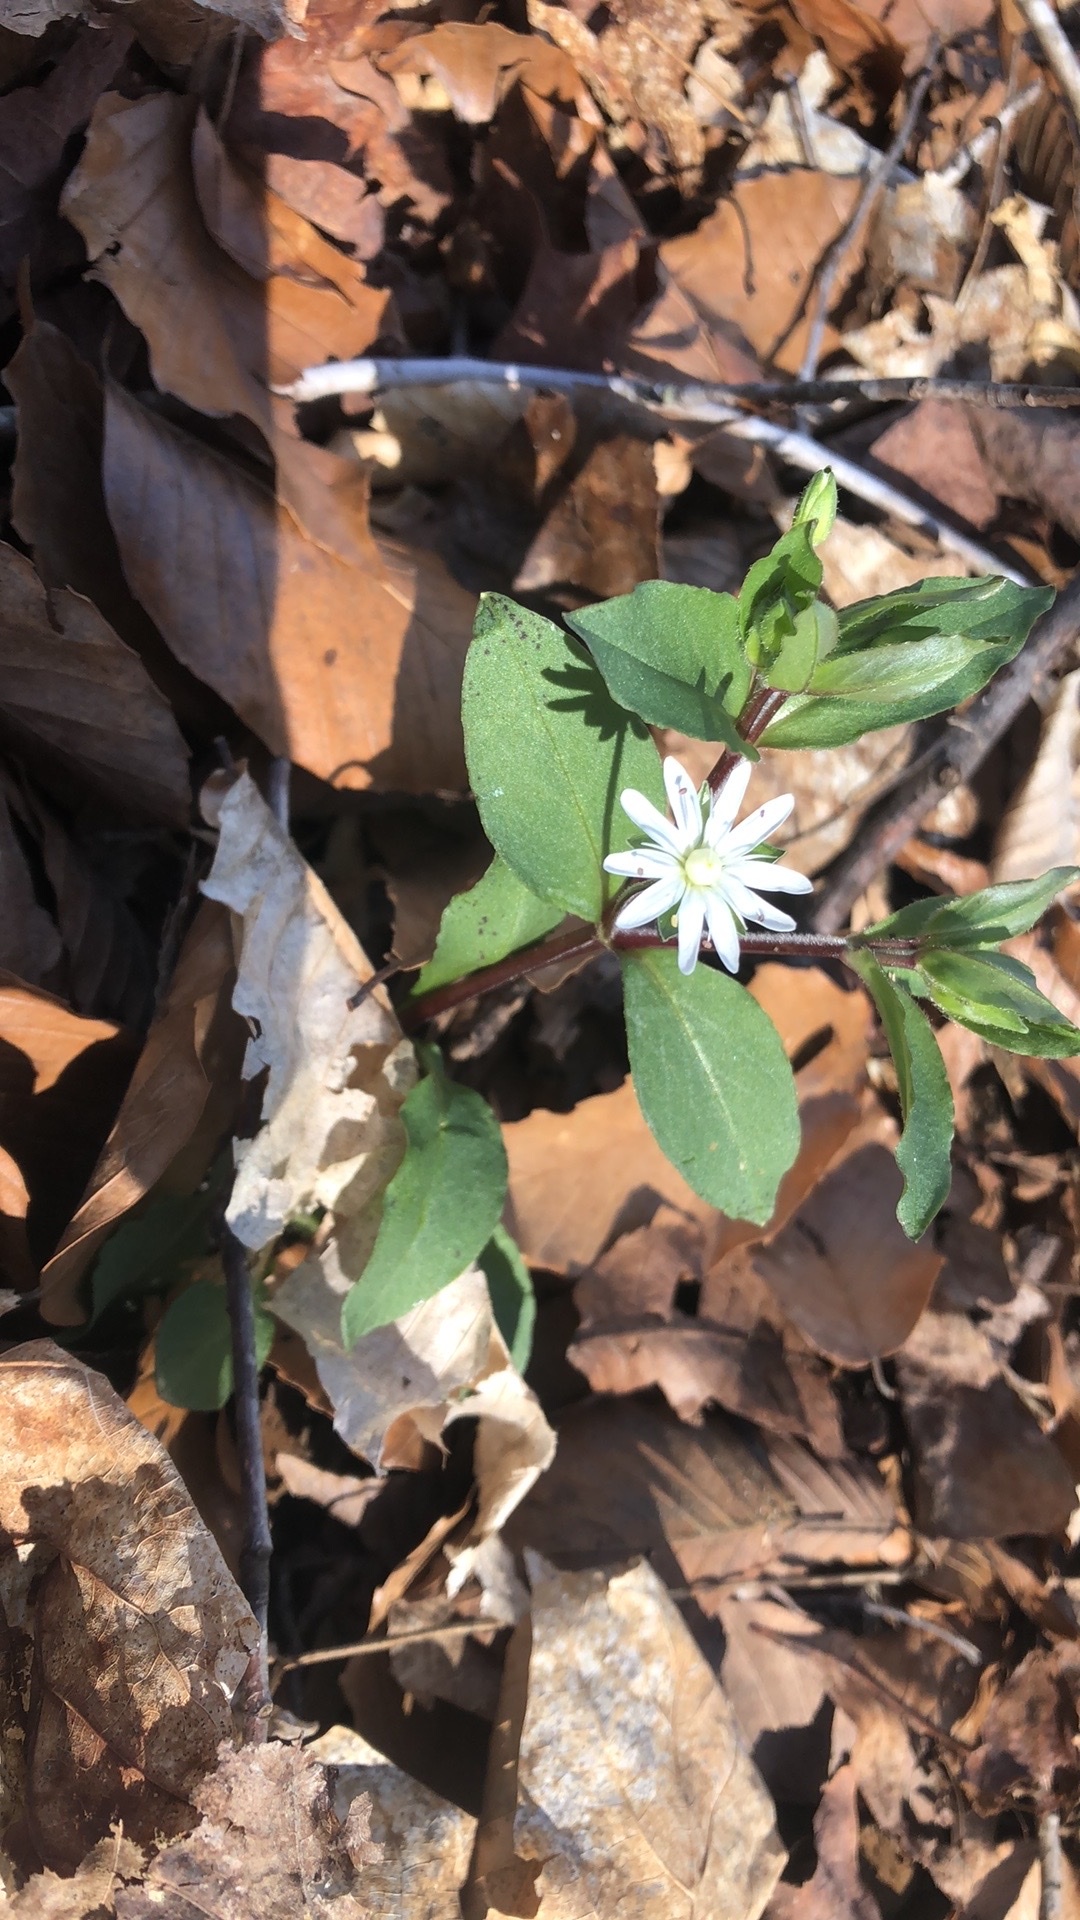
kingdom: Plantae
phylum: Tracheophyta
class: Magnoliopsida
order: Caryophyllales
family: Caryophyllaceae
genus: Stellaria
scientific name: Stellaria pubera
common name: Star chickweed
